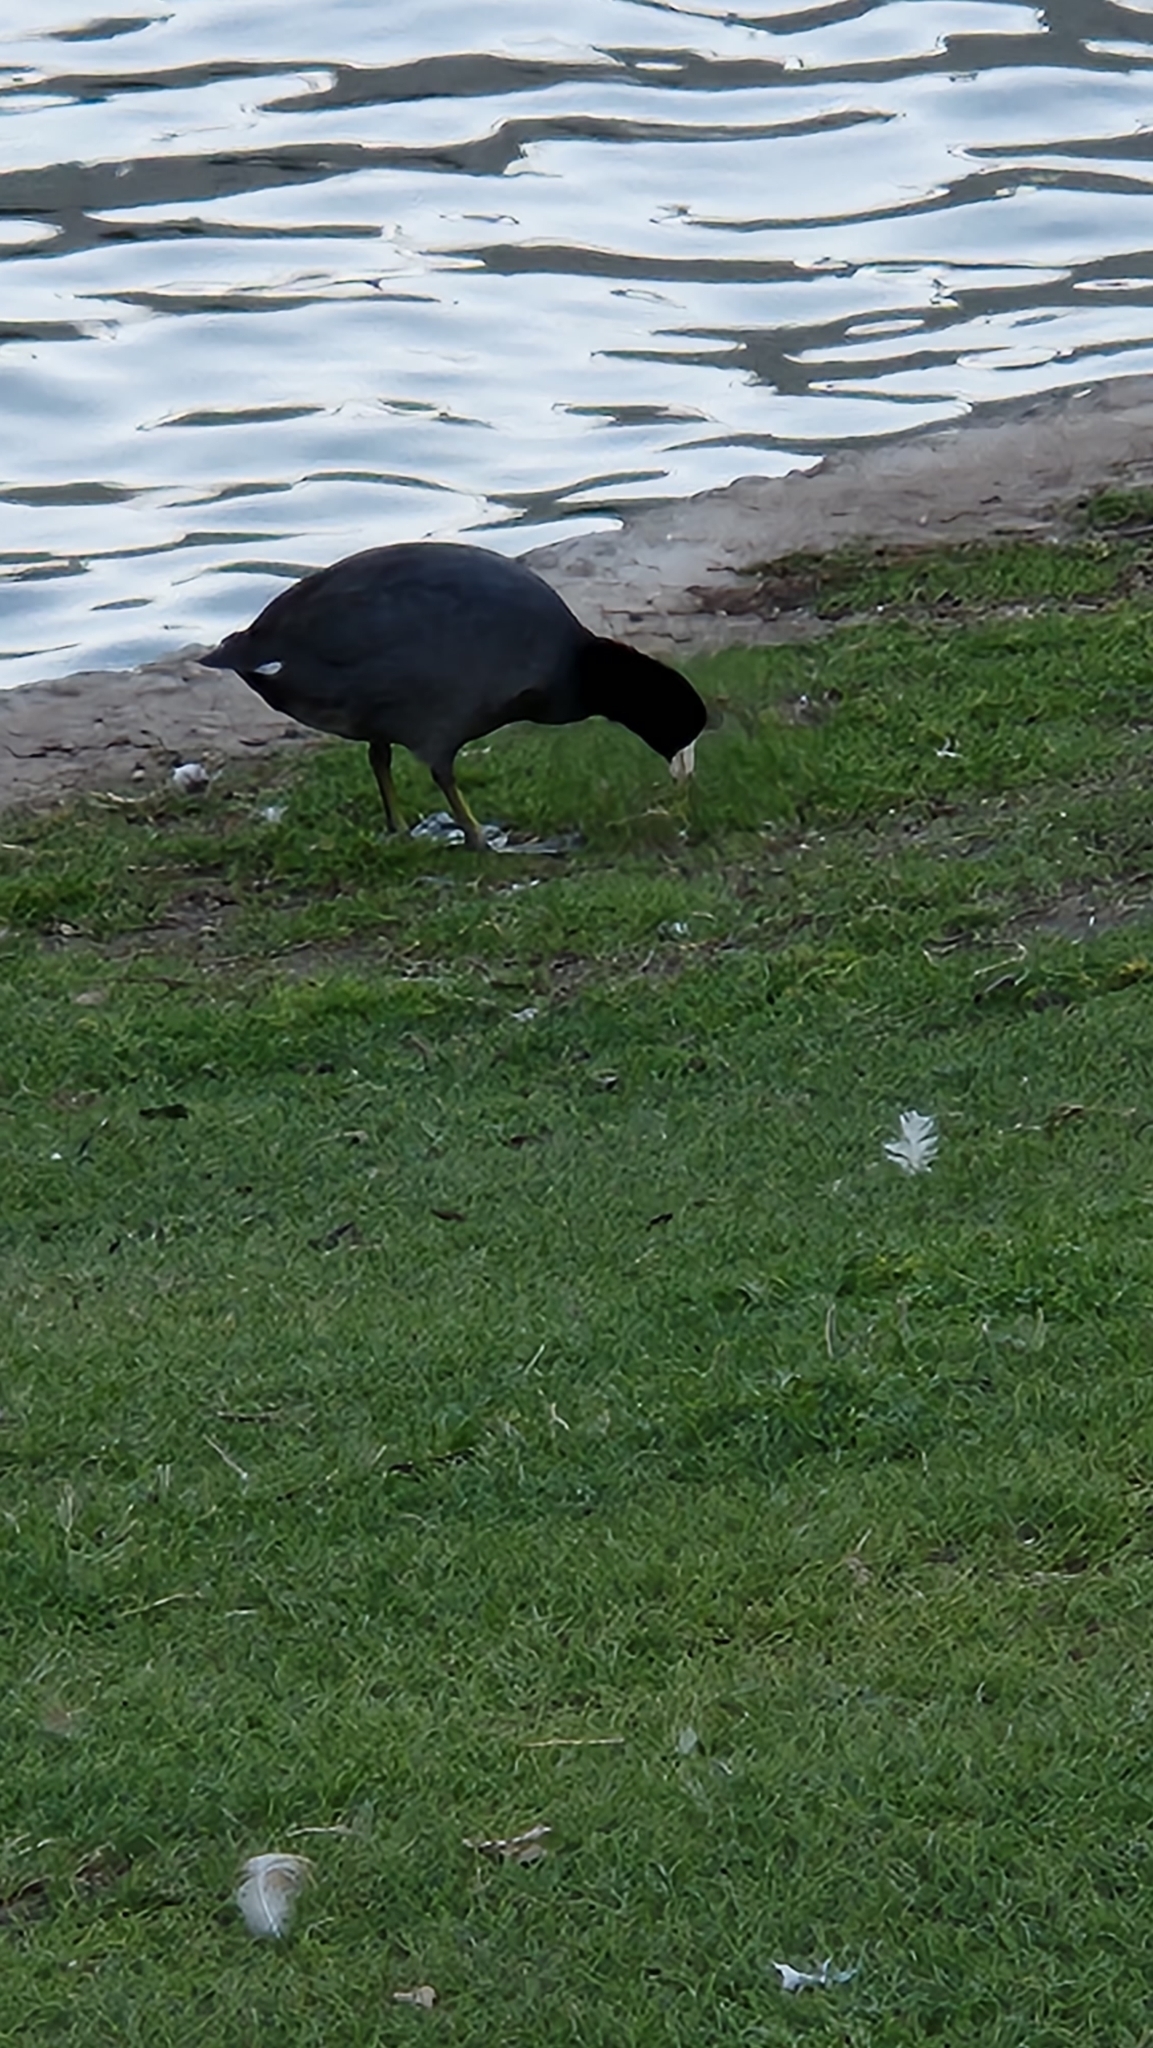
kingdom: Animalia
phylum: Chordata
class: Aves
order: Gruiformes
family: Rallidae
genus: Fulica
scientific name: Fulica americana
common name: American coot
